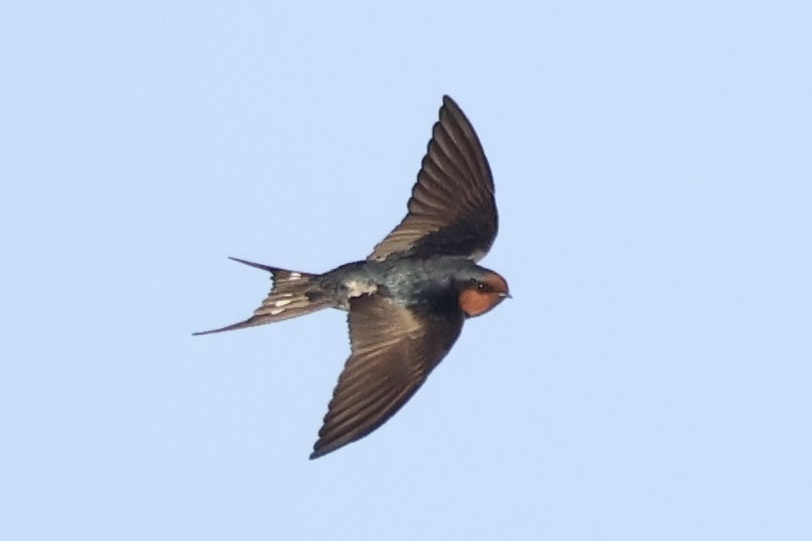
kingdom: Animalia
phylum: Chordata
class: Aves
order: Passeriformes
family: Hirundinidae
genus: Hirundo
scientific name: Hirundo neoxena
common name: Welcome swallow
